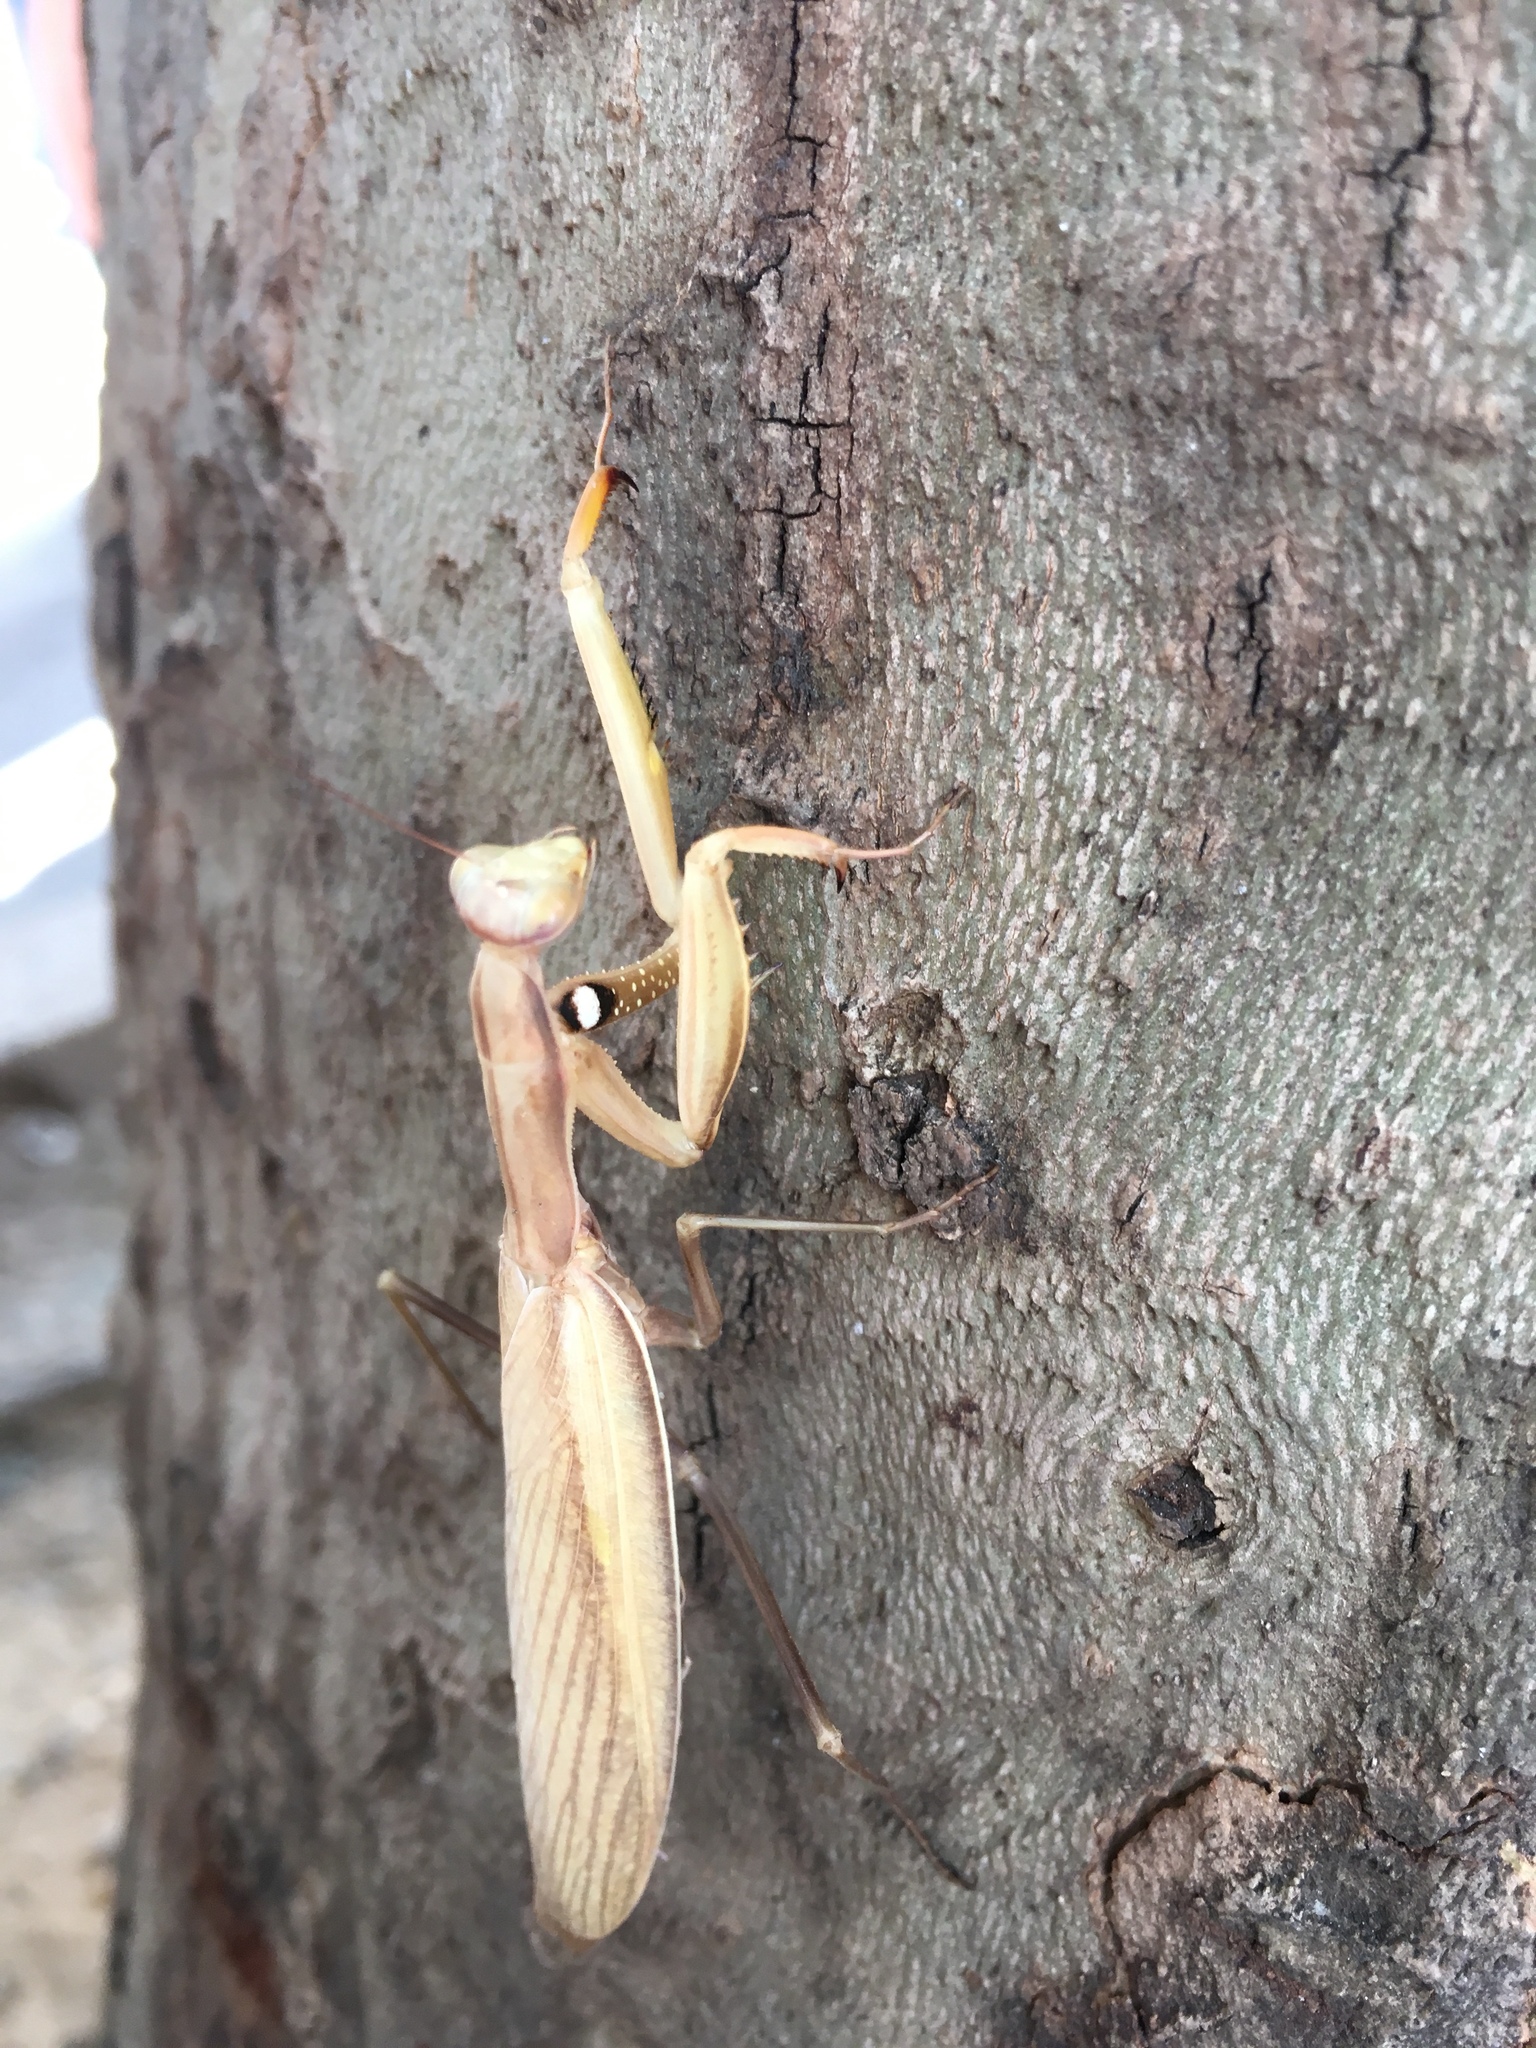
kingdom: Animalia
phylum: Arthropoda
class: Insecta
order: Mantodea
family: Mantidae
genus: Mantis
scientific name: Mantis religiosa
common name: Praying mantis
